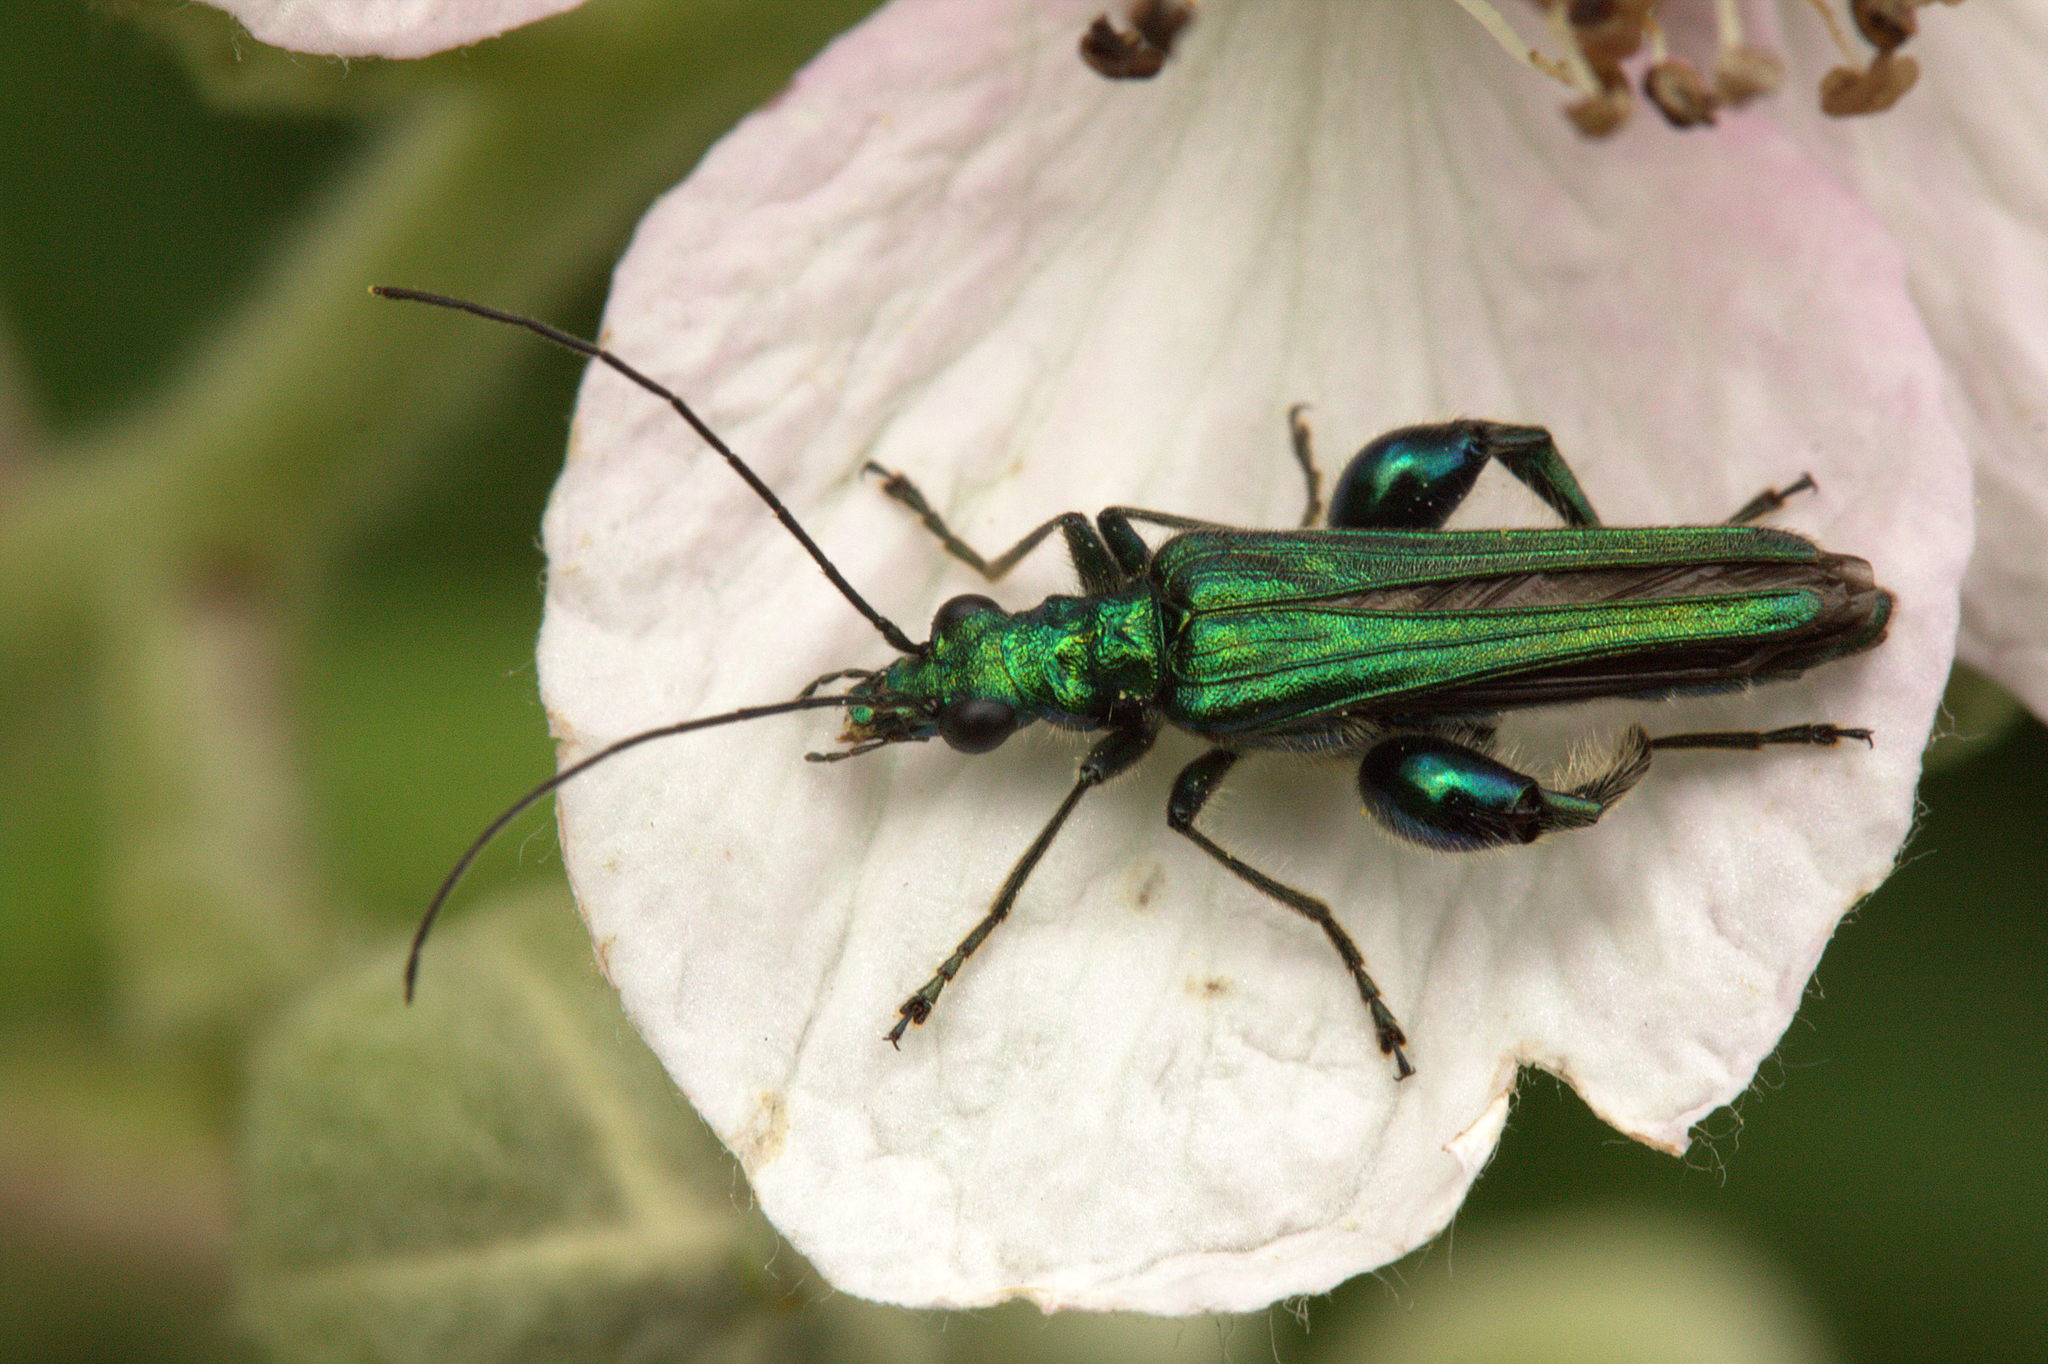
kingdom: Animalia
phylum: Arthropoda
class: Insecta
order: Coleoptera
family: Oedemeridae
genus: Oedemera
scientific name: Oedemera nobilis
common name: Swollen-thighed beetle
